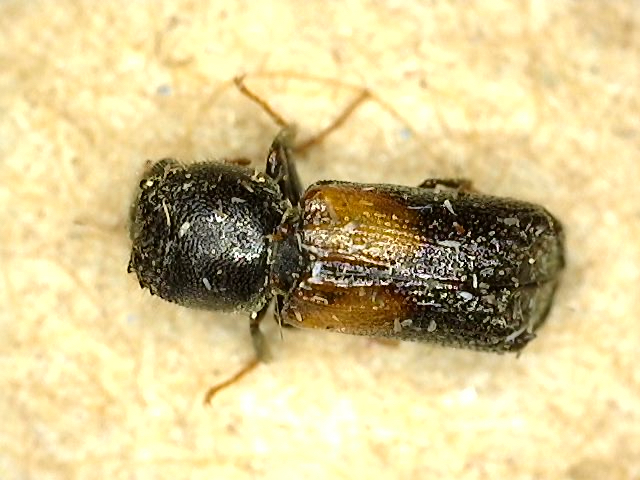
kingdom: Animalia
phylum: Arthropoda
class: Insecta
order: Coleoptera
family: Bostrichidae
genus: Xylobiops
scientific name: Xylobiops basilaris
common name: Red-shouldered bostrichid
